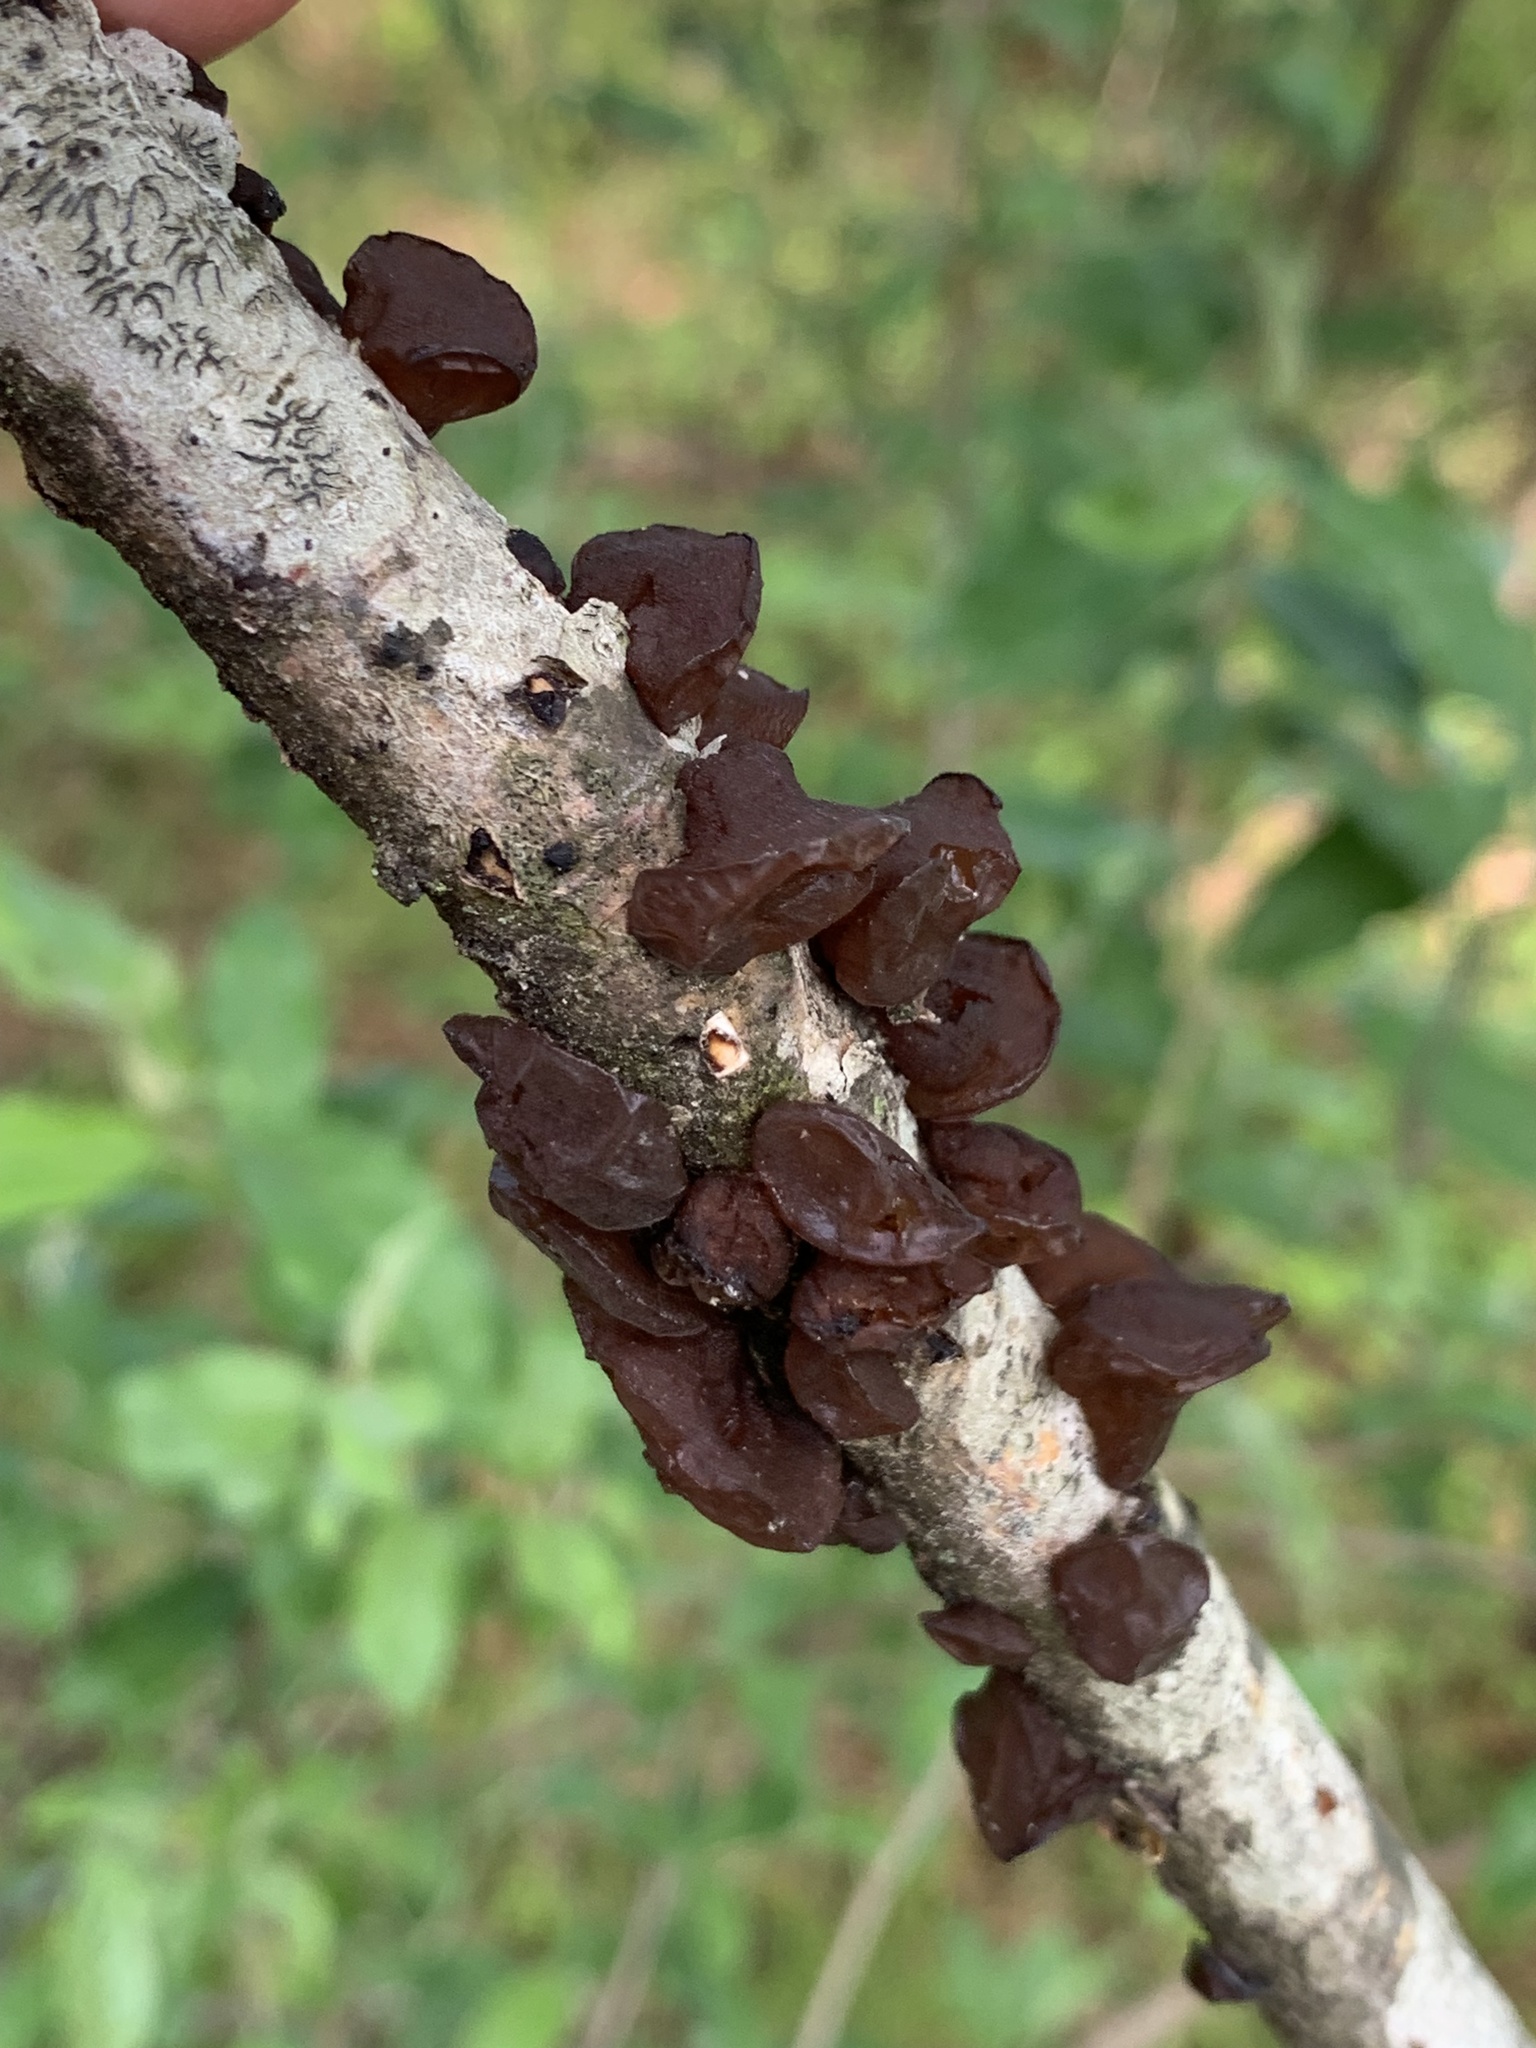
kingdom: Fungi
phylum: Basidiomycota
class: Agaricomycetes
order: Auriculariales
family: Auriculariaceae
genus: Exidia
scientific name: Exidia recisa
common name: Amber jelly
